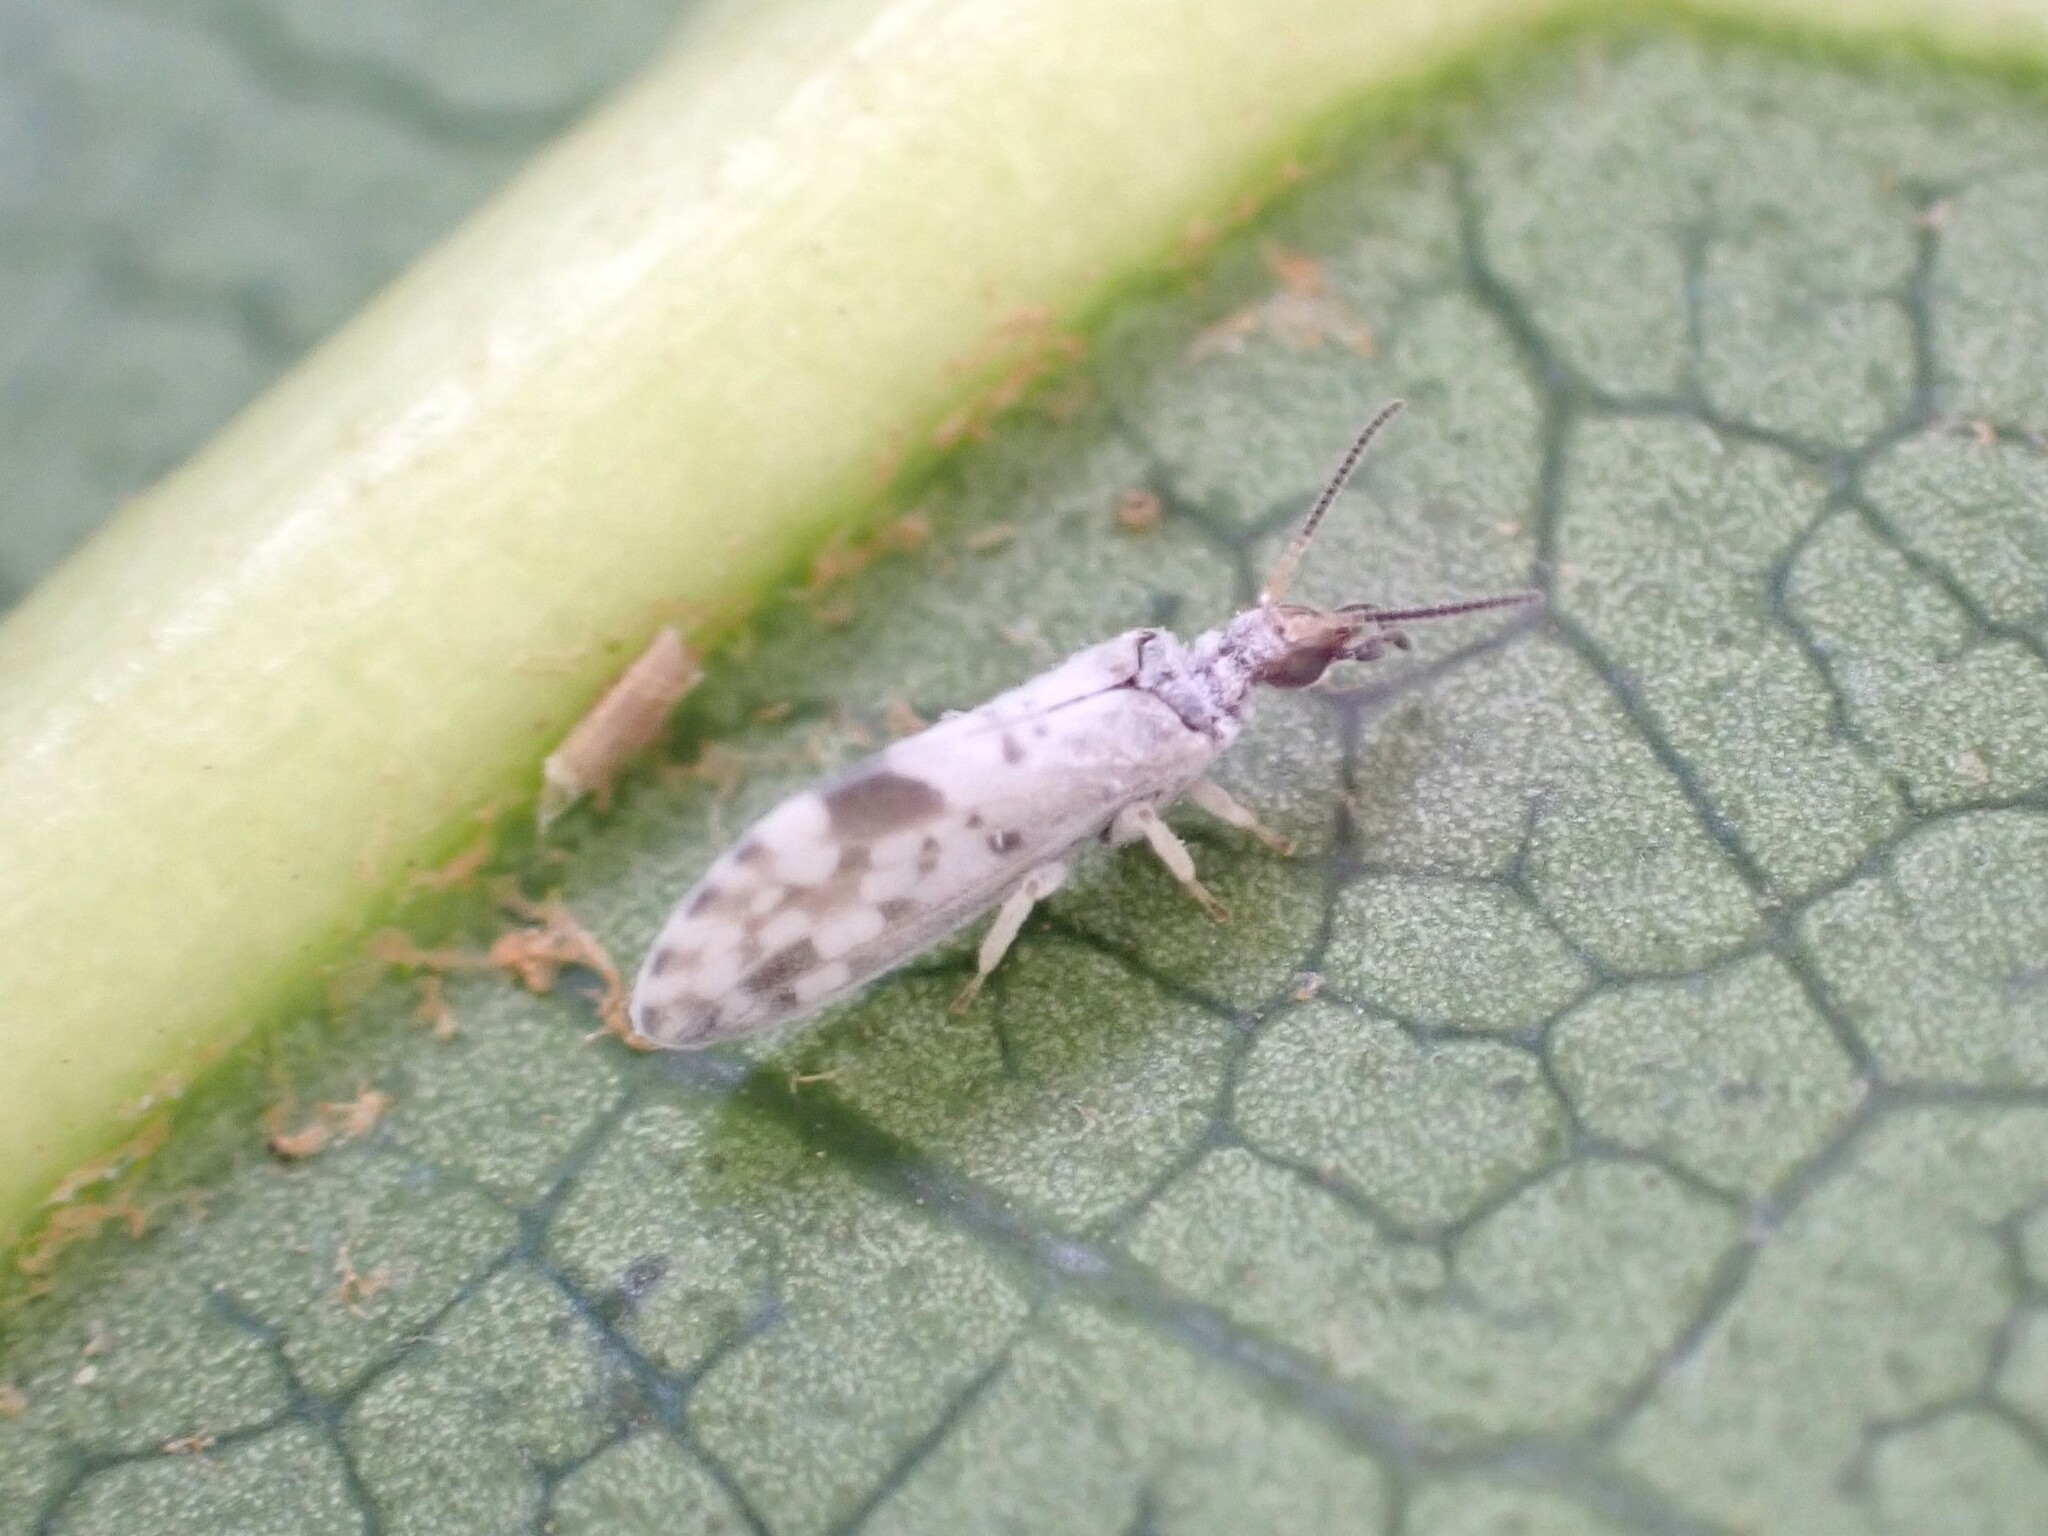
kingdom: Animalia
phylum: Arthropoda
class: Insecta
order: Neuroptera
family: Coniopterygidae
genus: Heteroconis
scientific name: Heteroconis ornata
